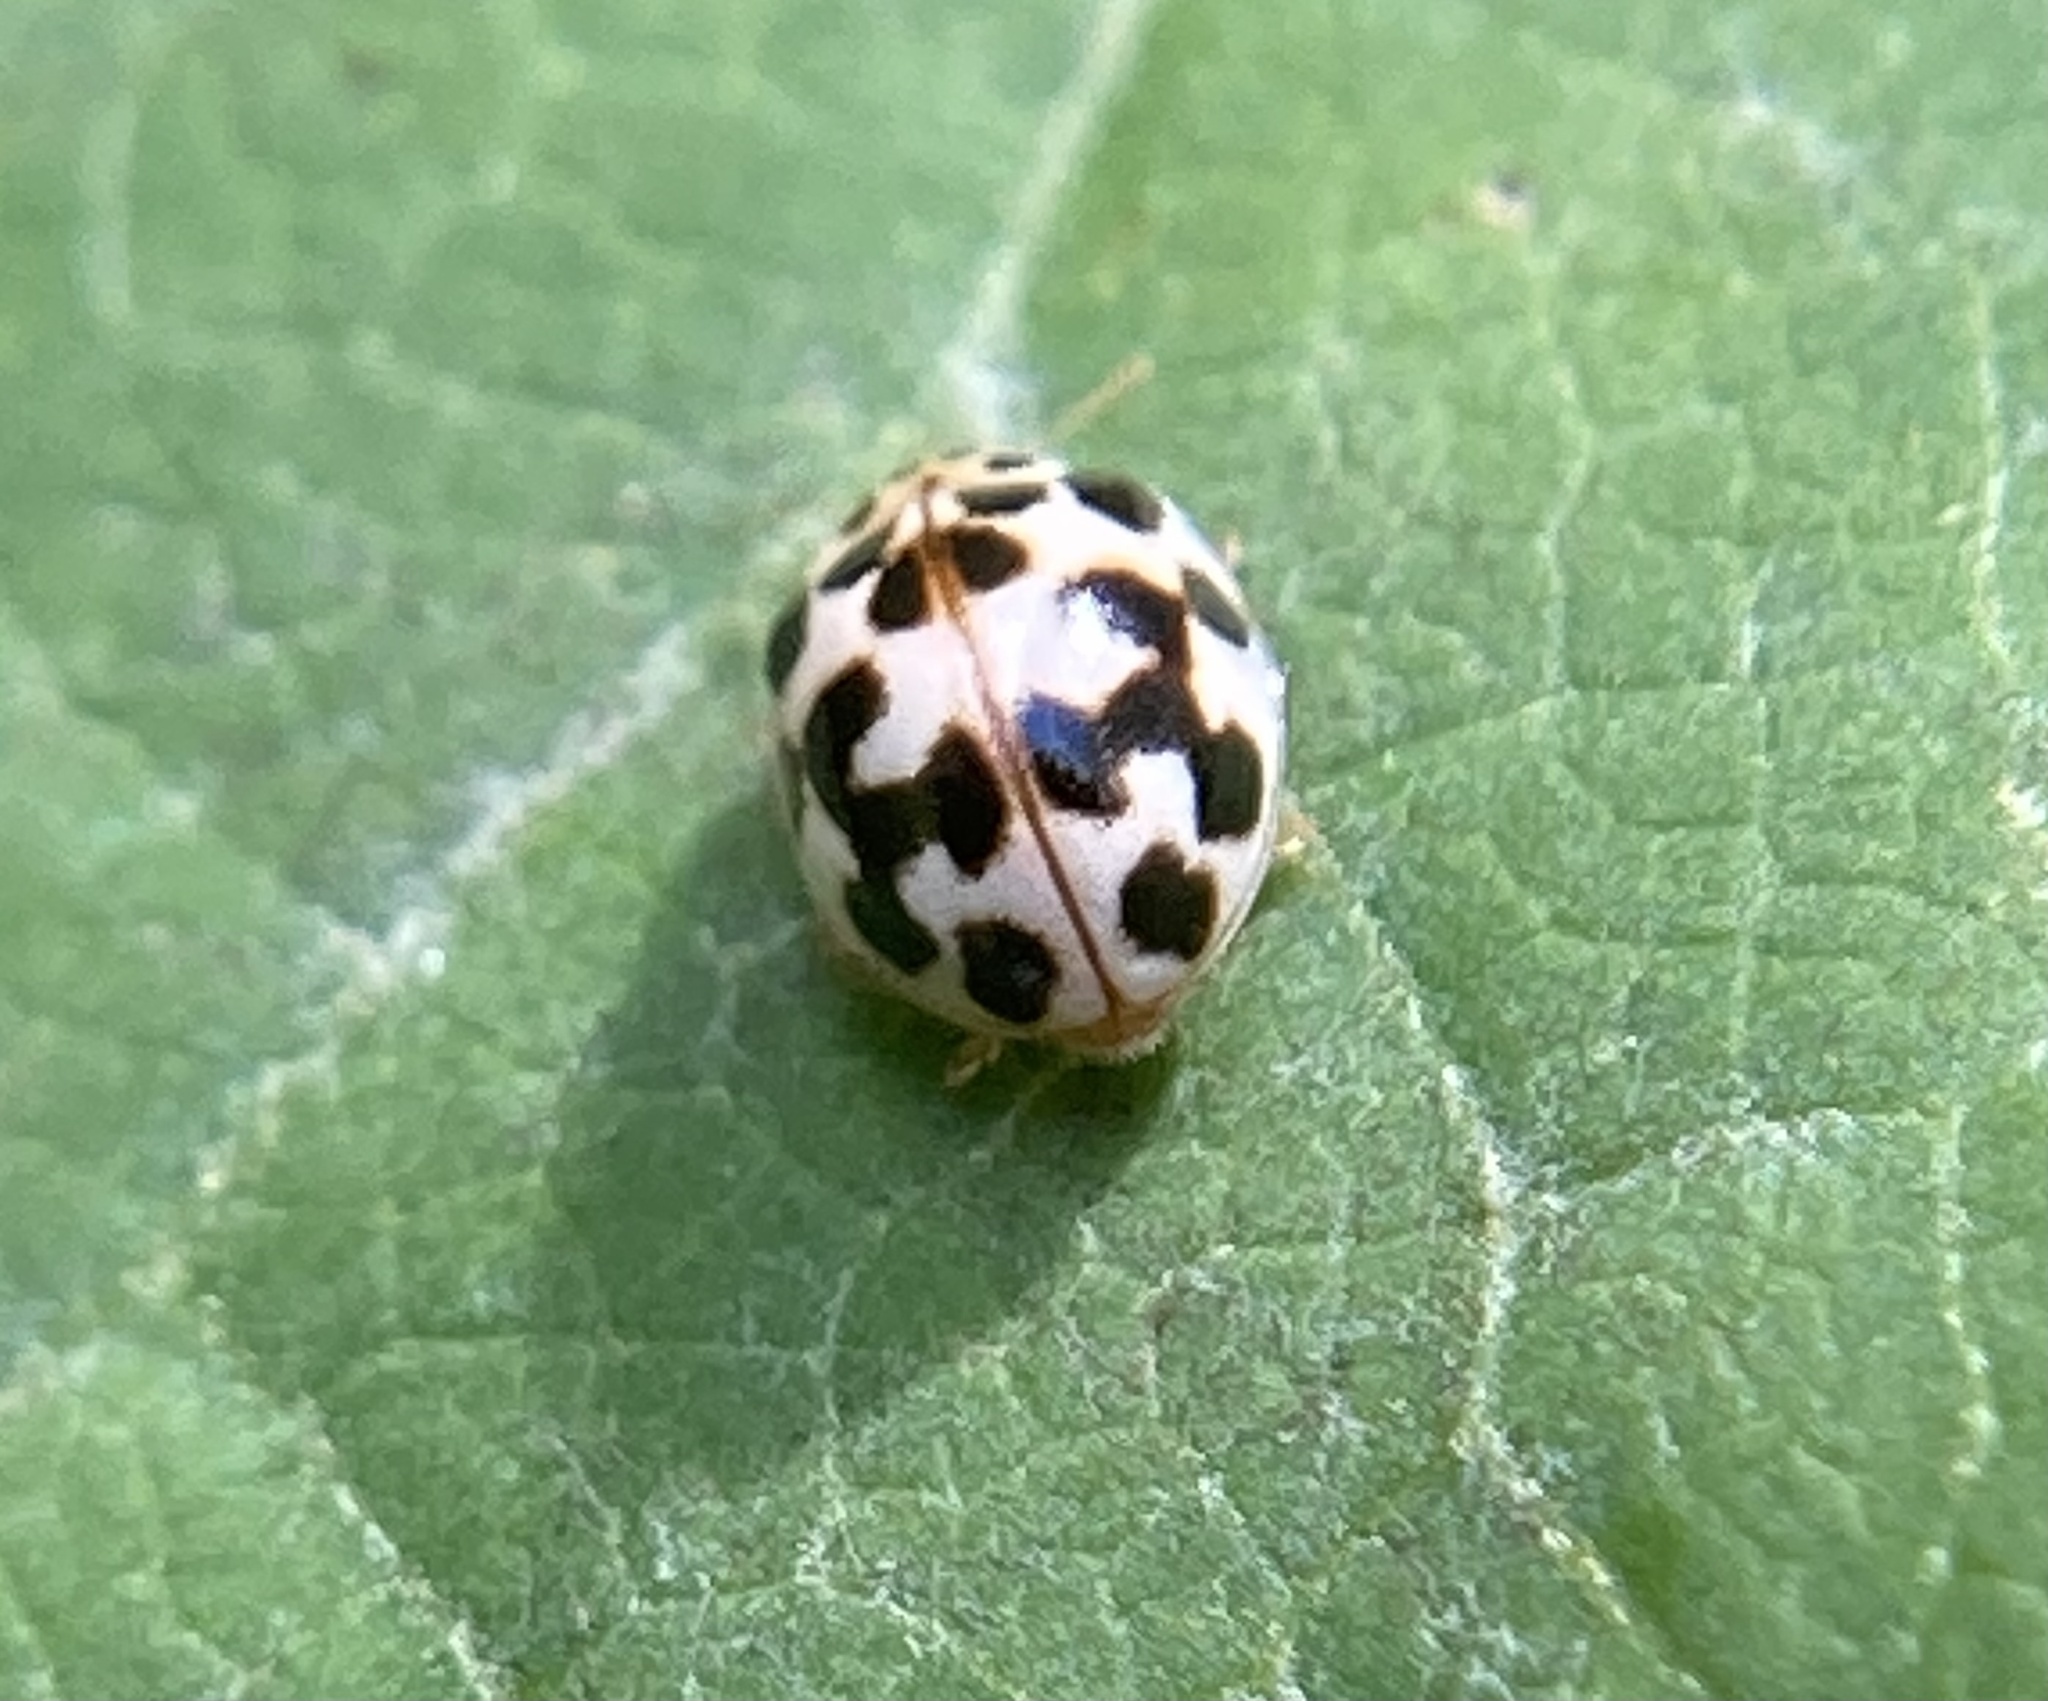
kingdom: Animalia
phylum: Arthropoda
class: Insecta
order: Coleoptera
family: Coccinellidae
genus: Psyllobora
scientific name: Psyllobora vigintimaculata
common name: Ladybird beetle
